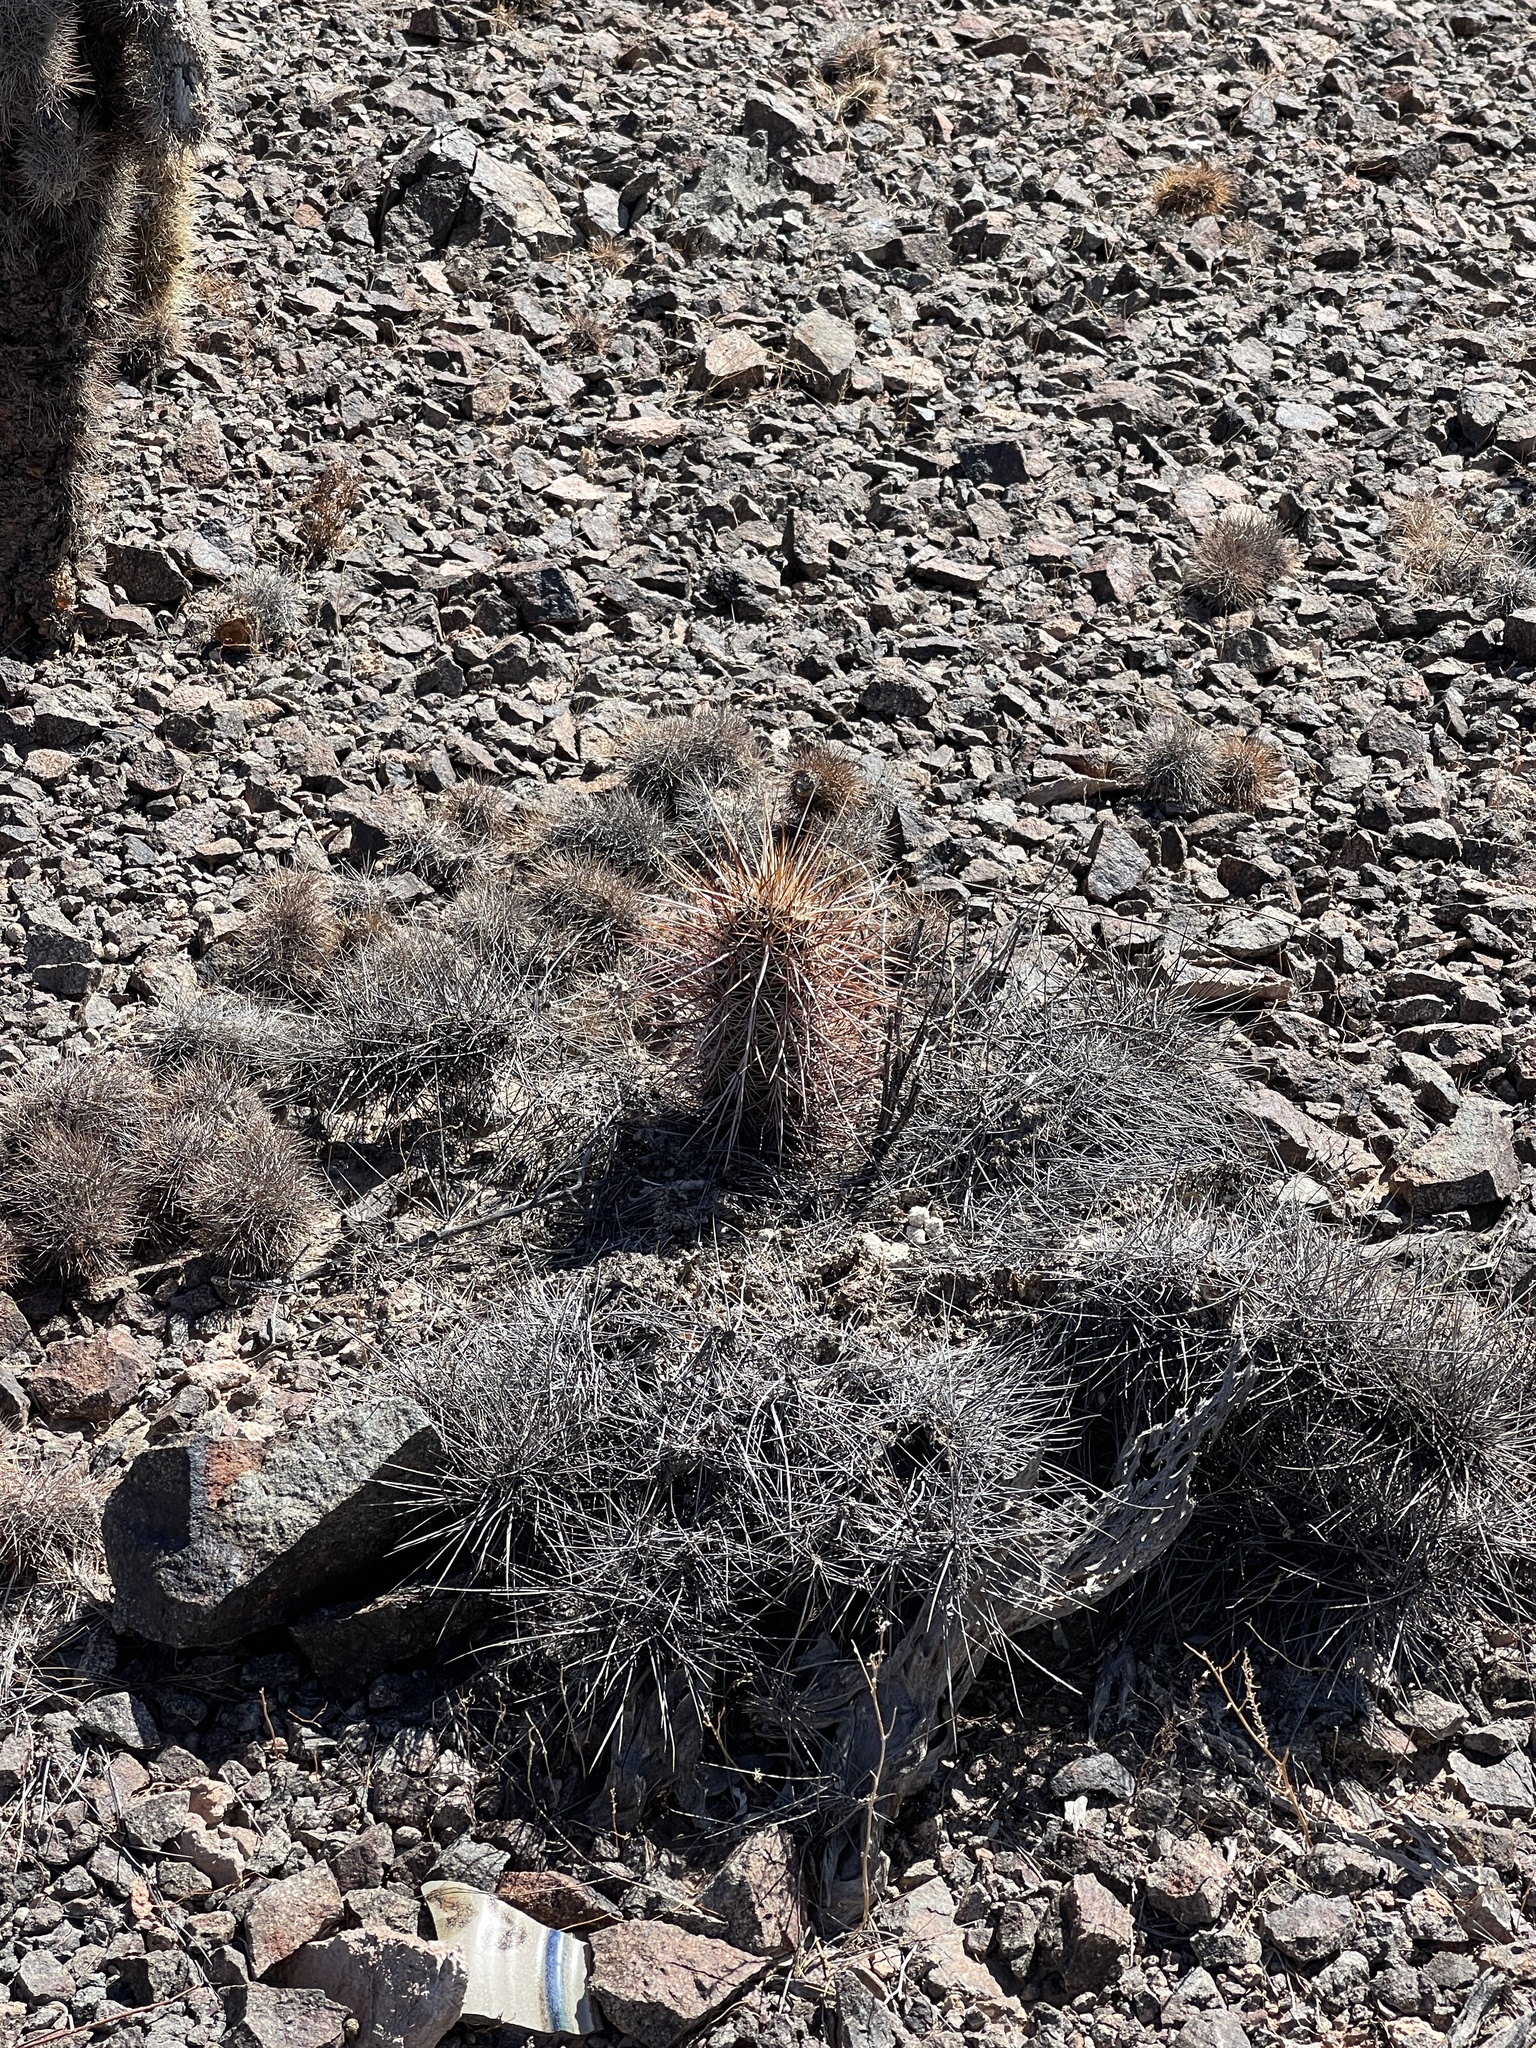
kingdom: Plantae
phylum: Tracheophyta
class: Magnoliopsida
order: Caryophyllales
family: Cactaceae
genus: Echinocereus
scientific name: Echinocereus engelmannii
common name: Engelmann's hedgehog cactus
